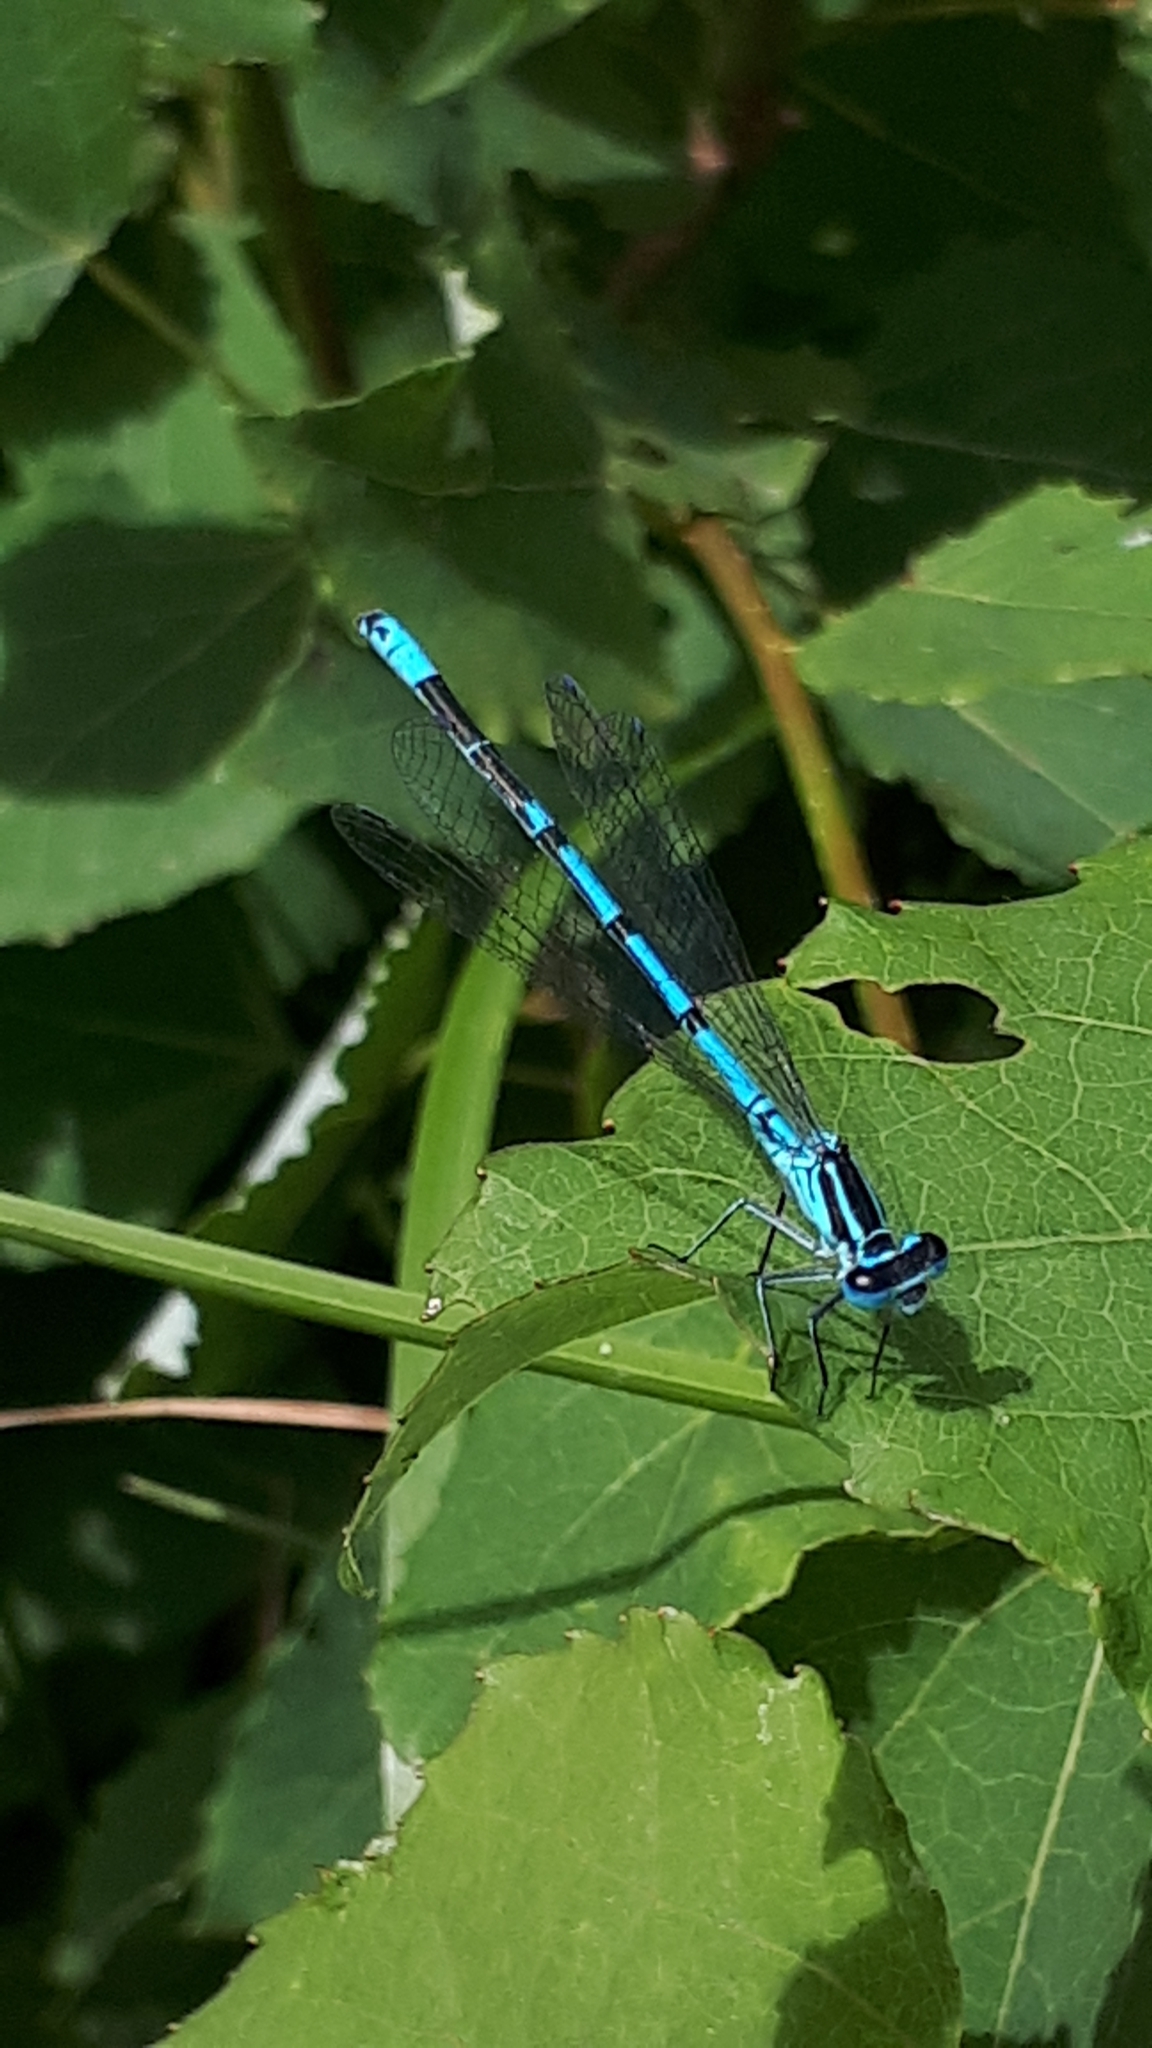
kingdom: Animalia
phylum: Arthropoda
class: Insecta
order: Odonata
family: Coenagrionidae
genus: Coenagrion
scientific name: Coenagrion puella
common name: Azure damselfly
